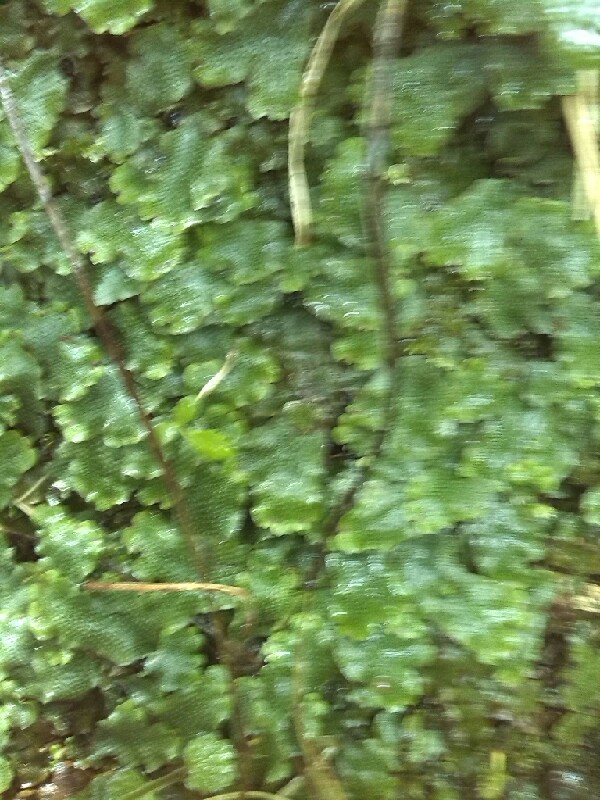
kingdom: Plantae
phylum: Marchantiophyta
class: Marchantiopsida
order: Marchantiales
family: Conocephalaceae
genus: Conocephalum
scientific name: Conocephalum conicum
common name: Great scented liverwort
